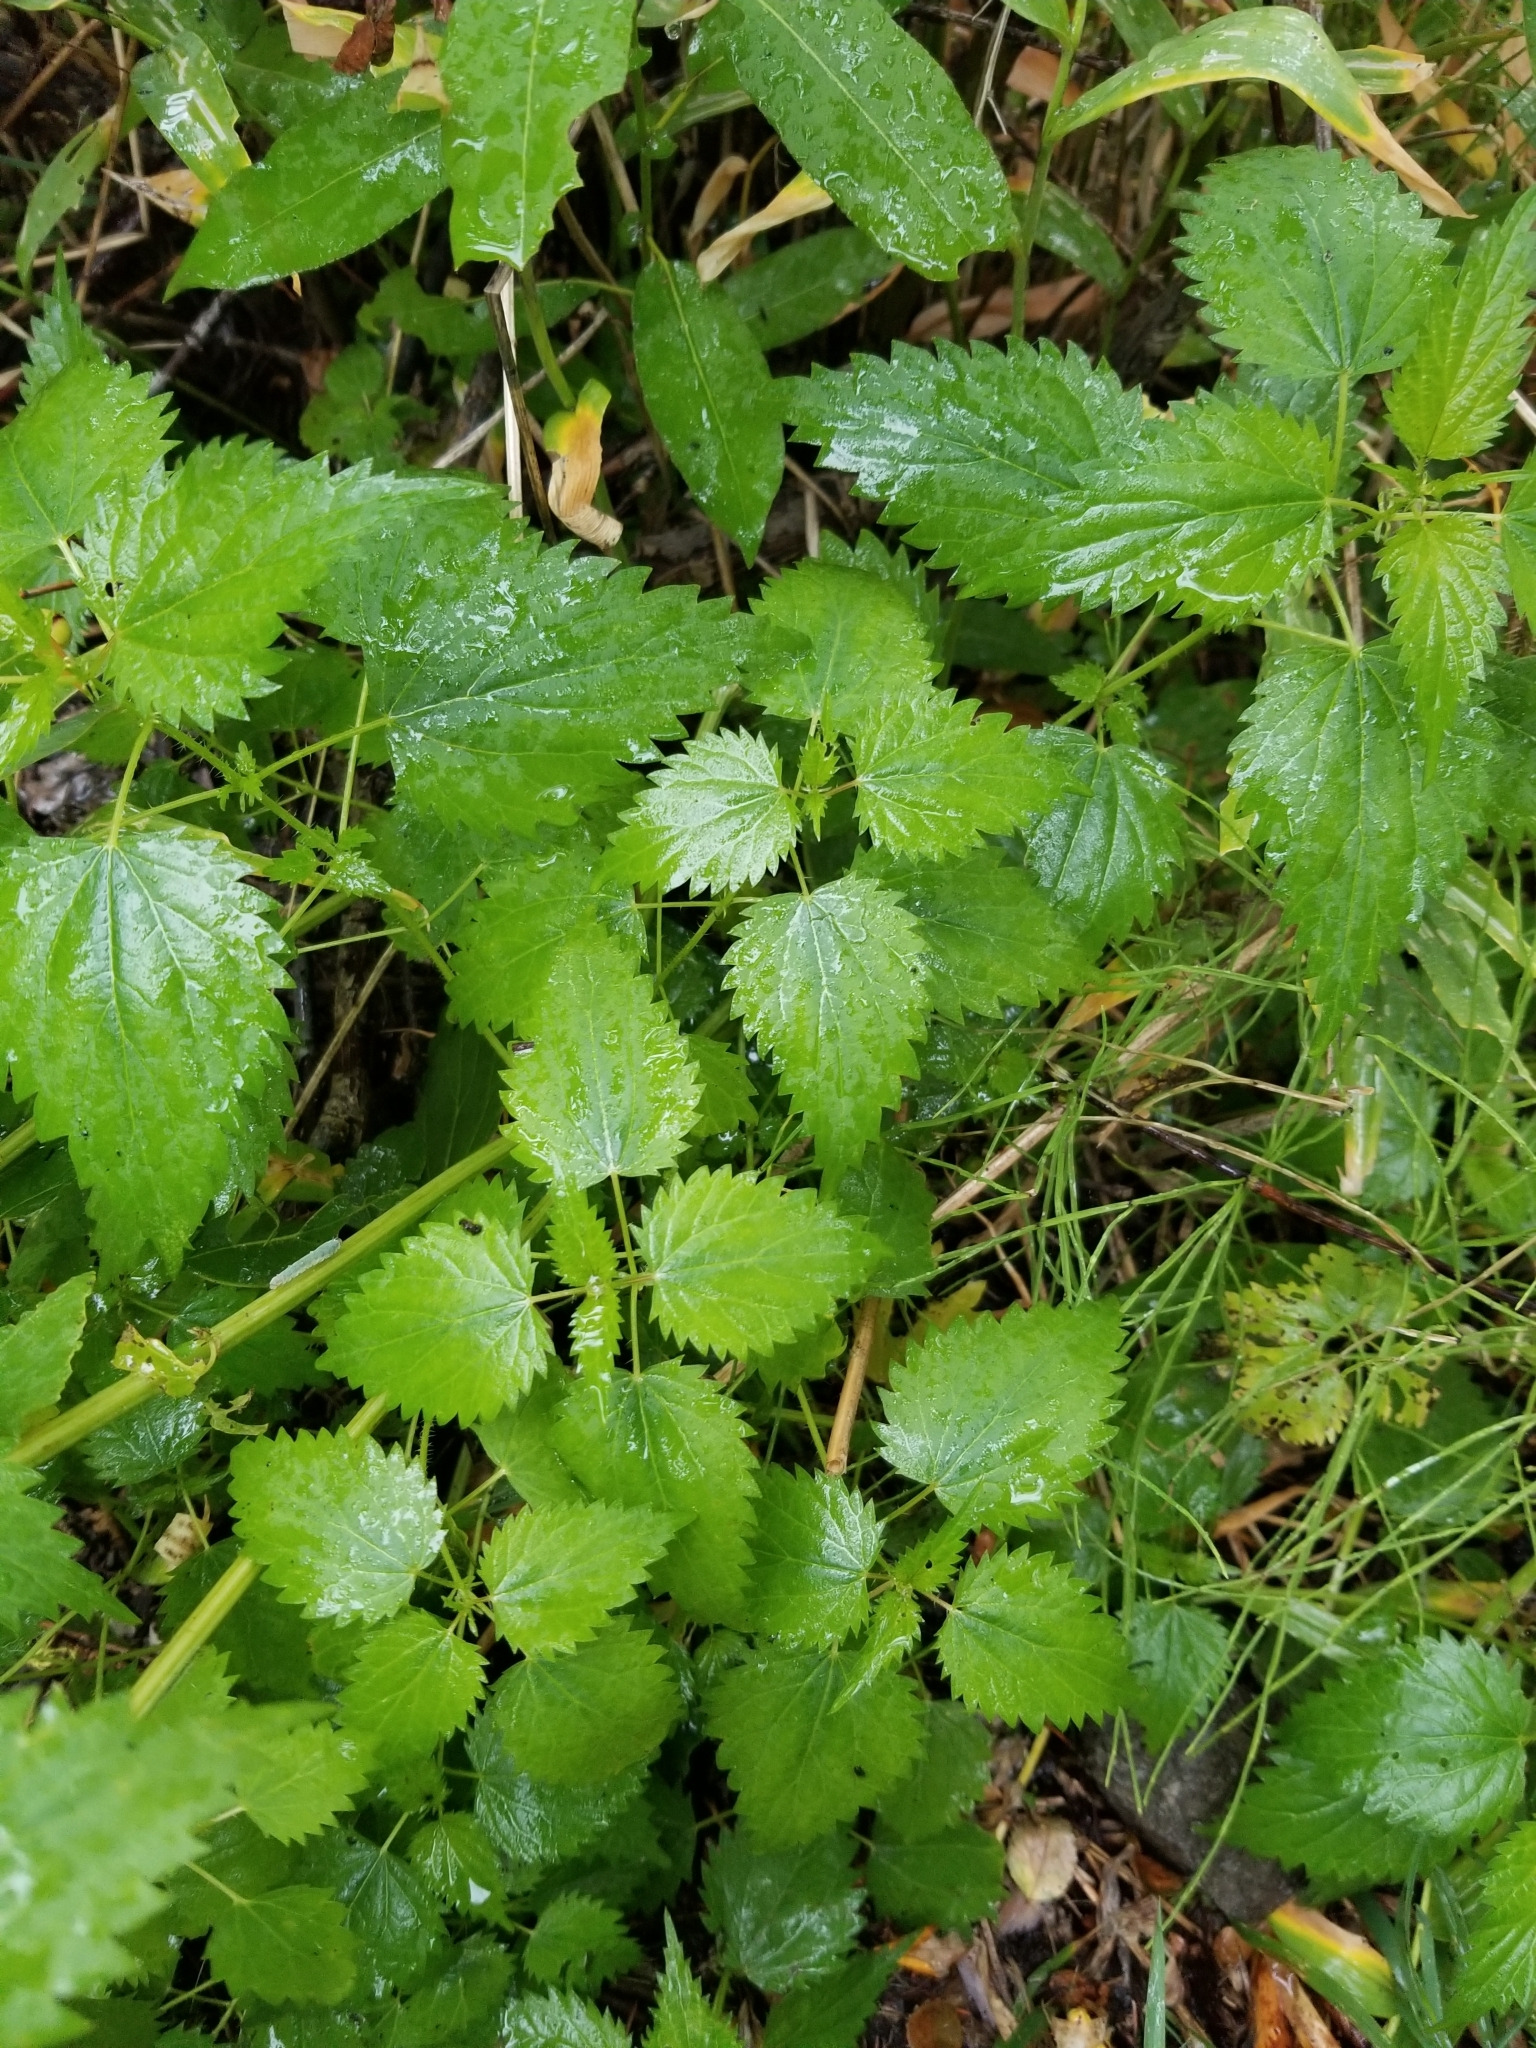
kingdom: Plantae
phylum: Tracheophyta
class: Magnoliopsida
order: Rosales
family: Urticaceae
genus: Urtica
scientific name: Urtica dioica
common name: Common nettle
